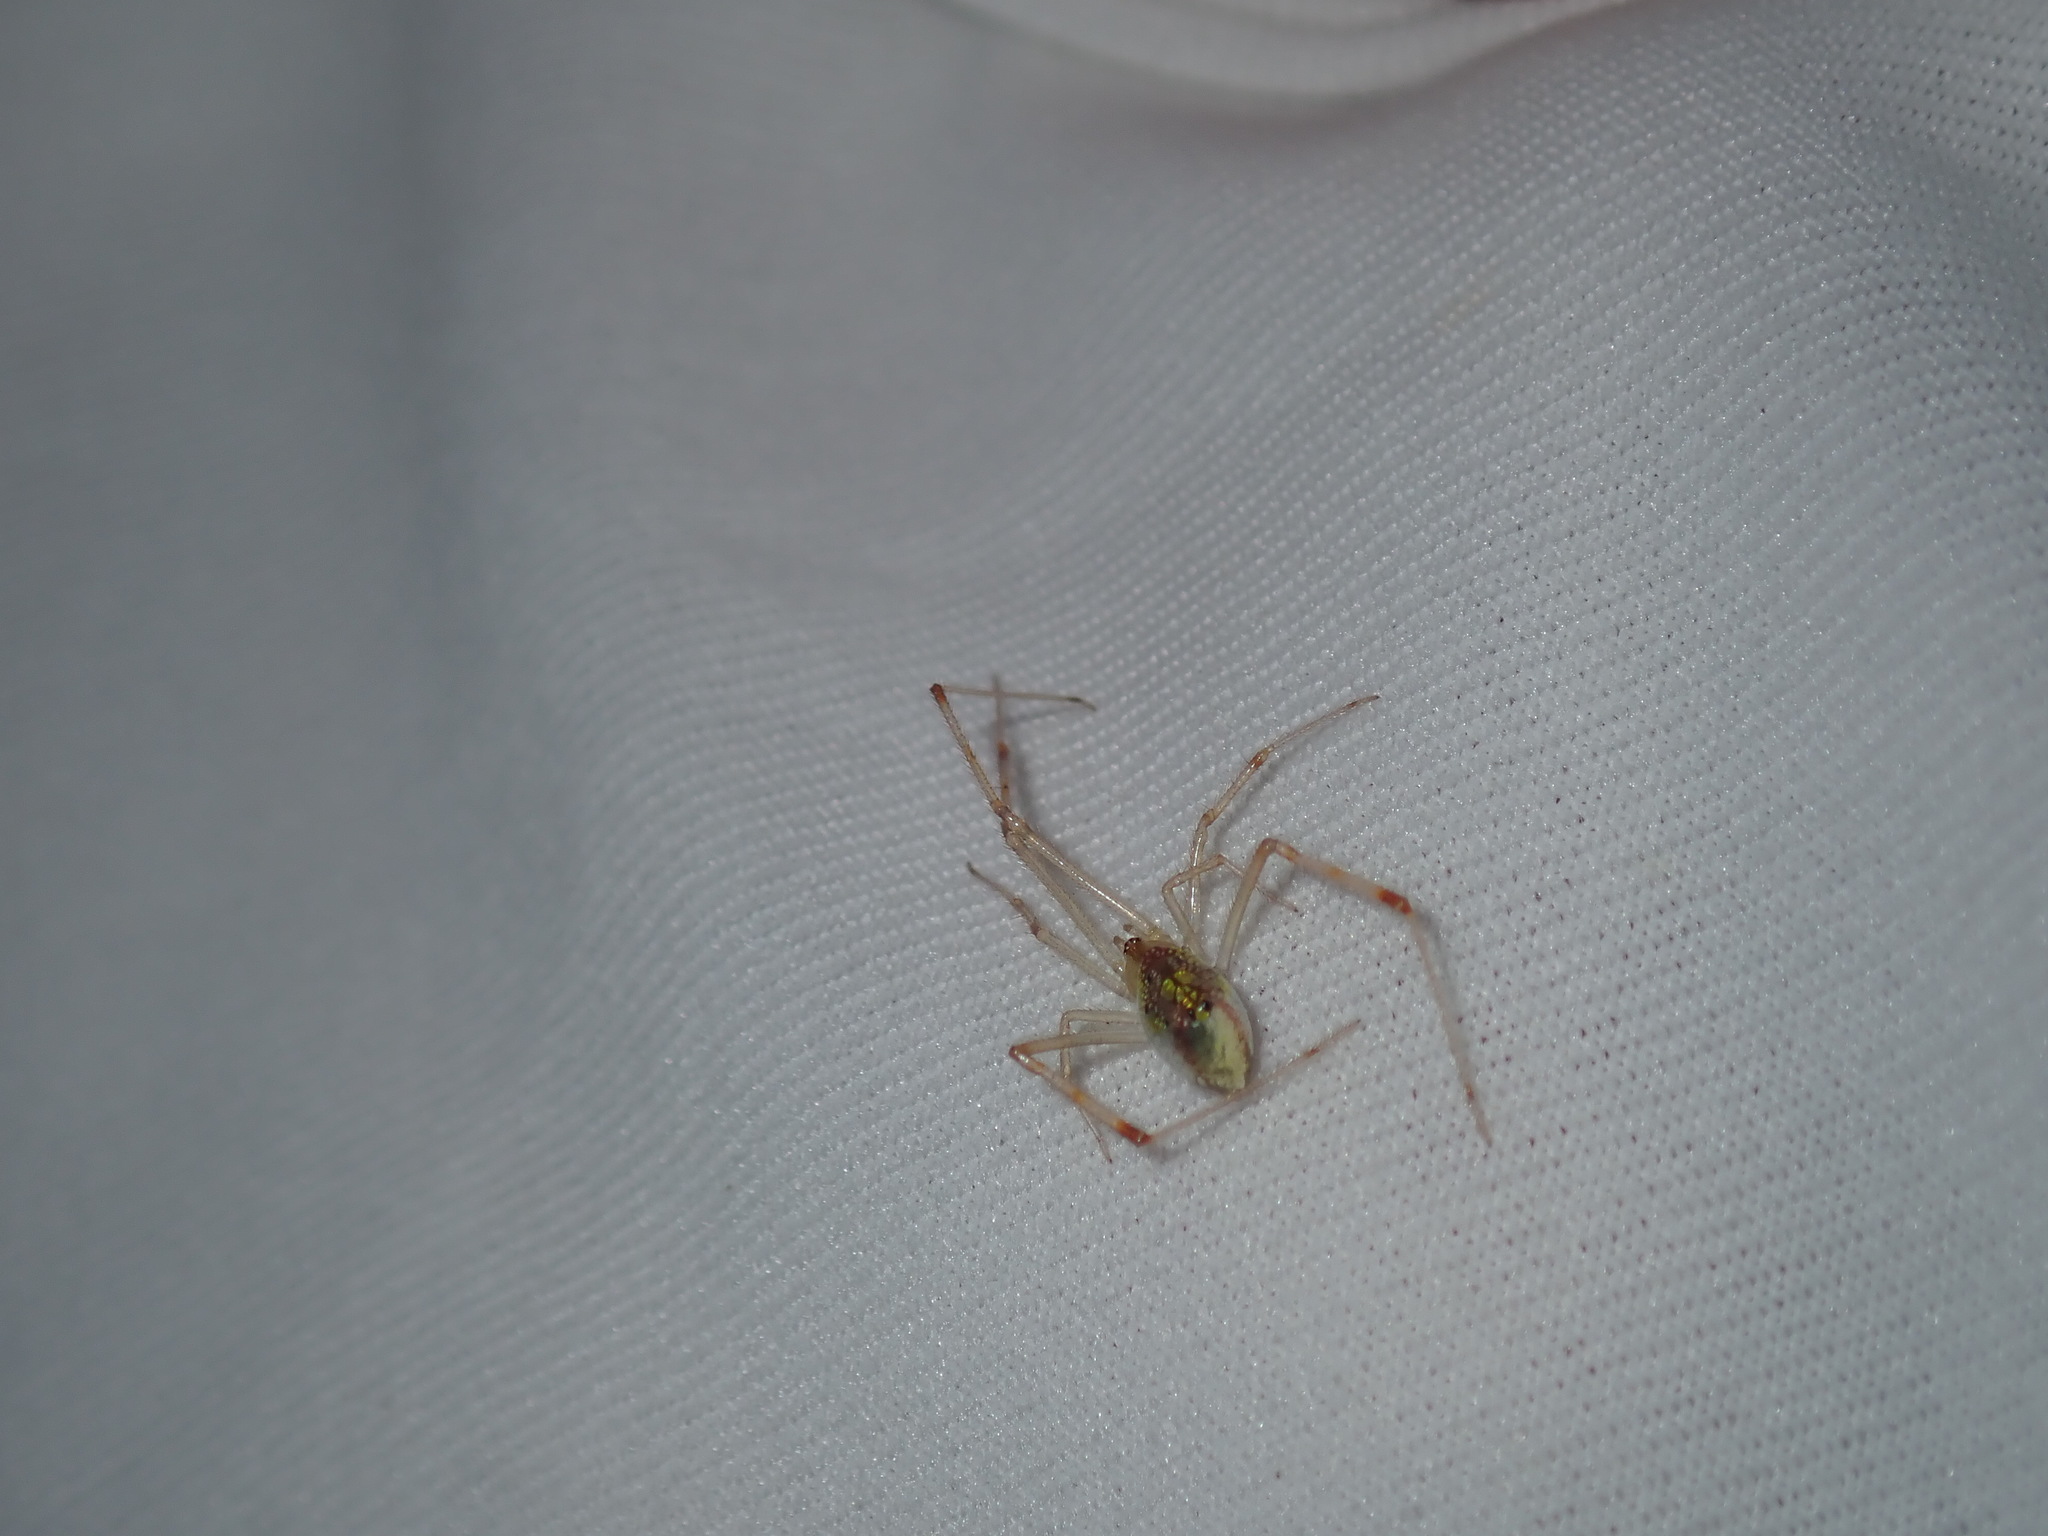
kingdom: Animalia
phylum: Arthropoda
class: Arachnida
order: Araneae
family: Theridiidae
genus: Thwaitesia
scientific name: Thwaitesia nigronodosa
